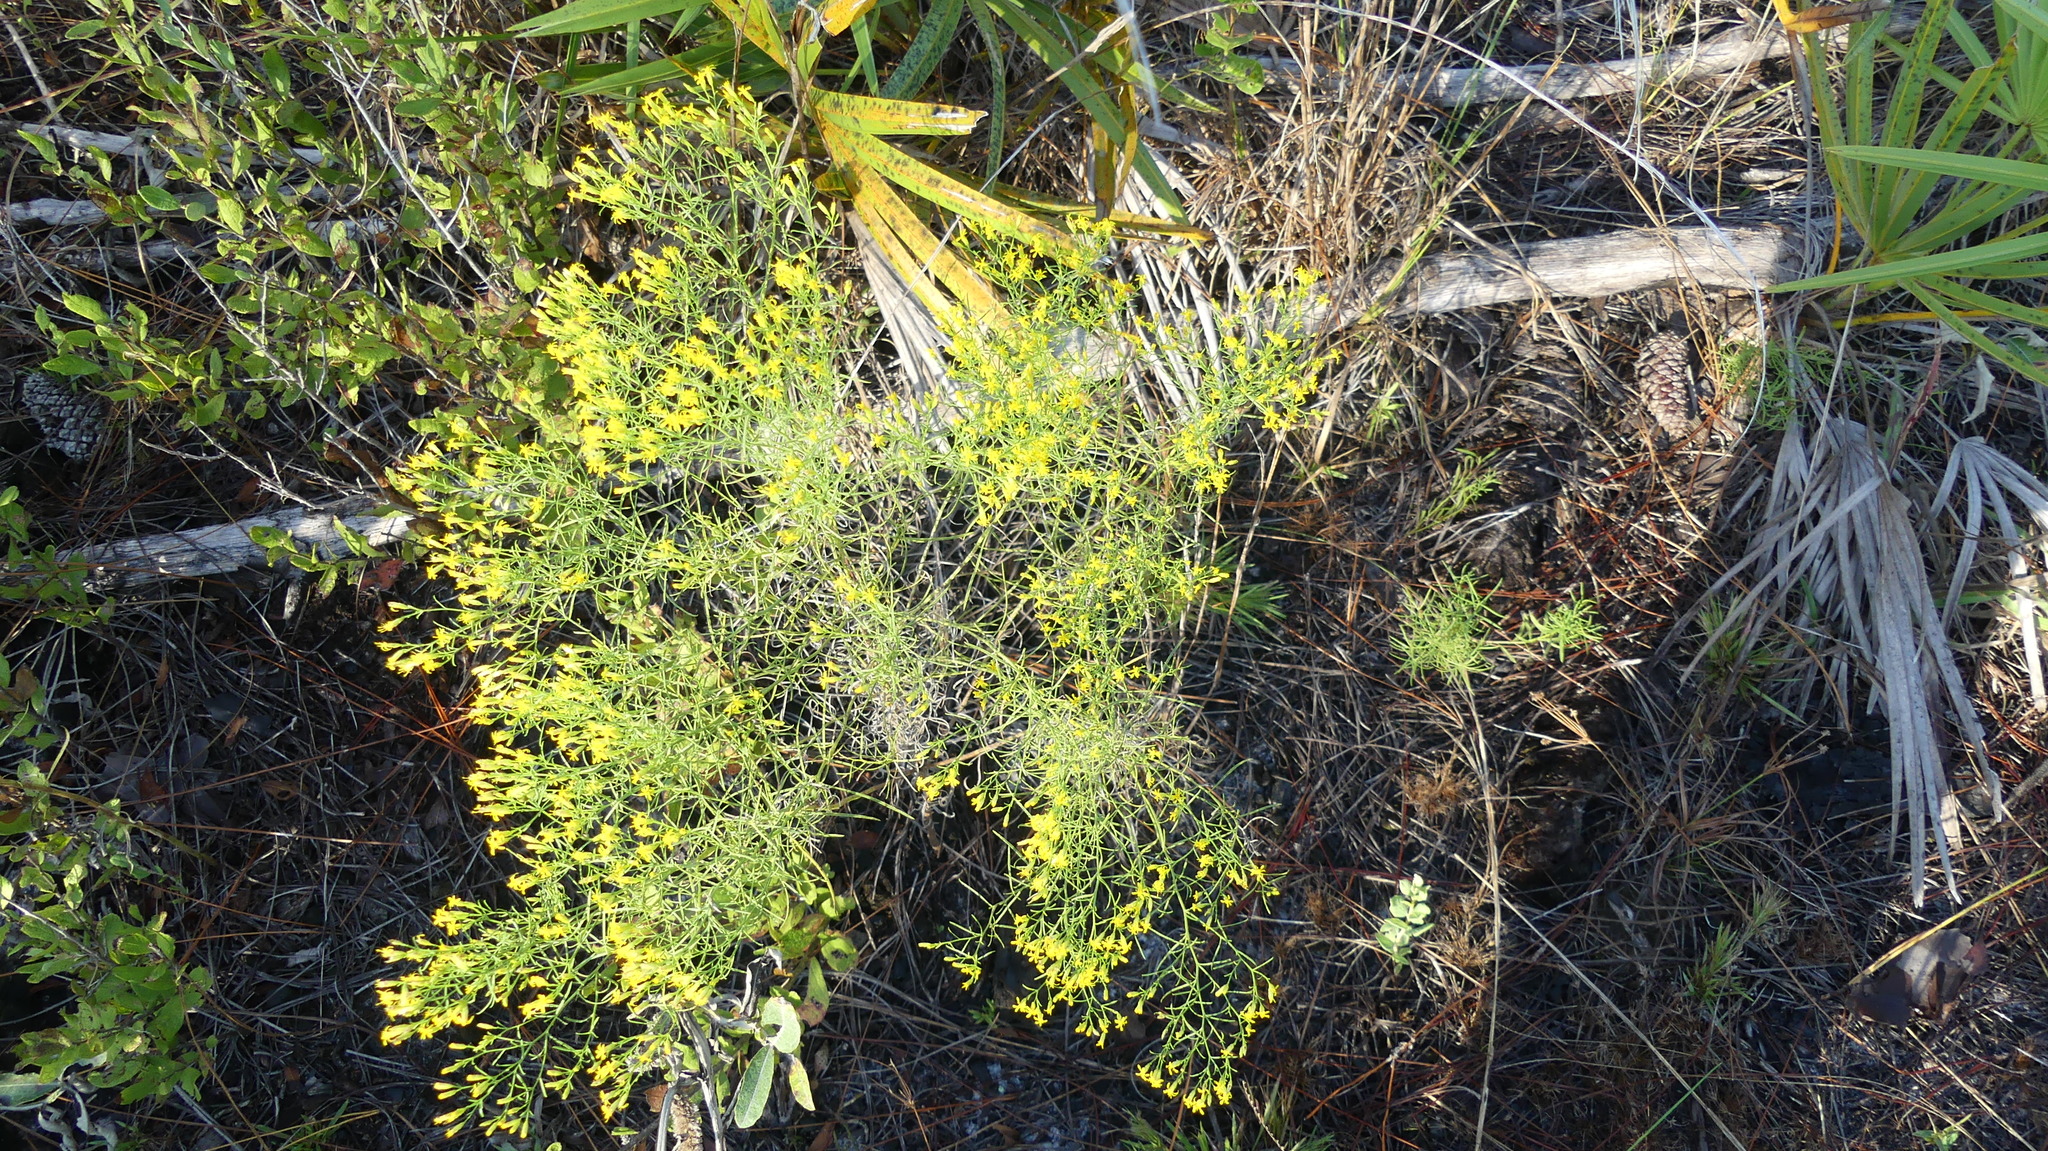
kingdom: Plantae
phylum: Tracheophyta
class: Magnoliopsida
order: Asterales
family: Asteraceae
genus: Euthamia
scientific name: Euthamia caroliniana
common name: Coastal plain goldentop
